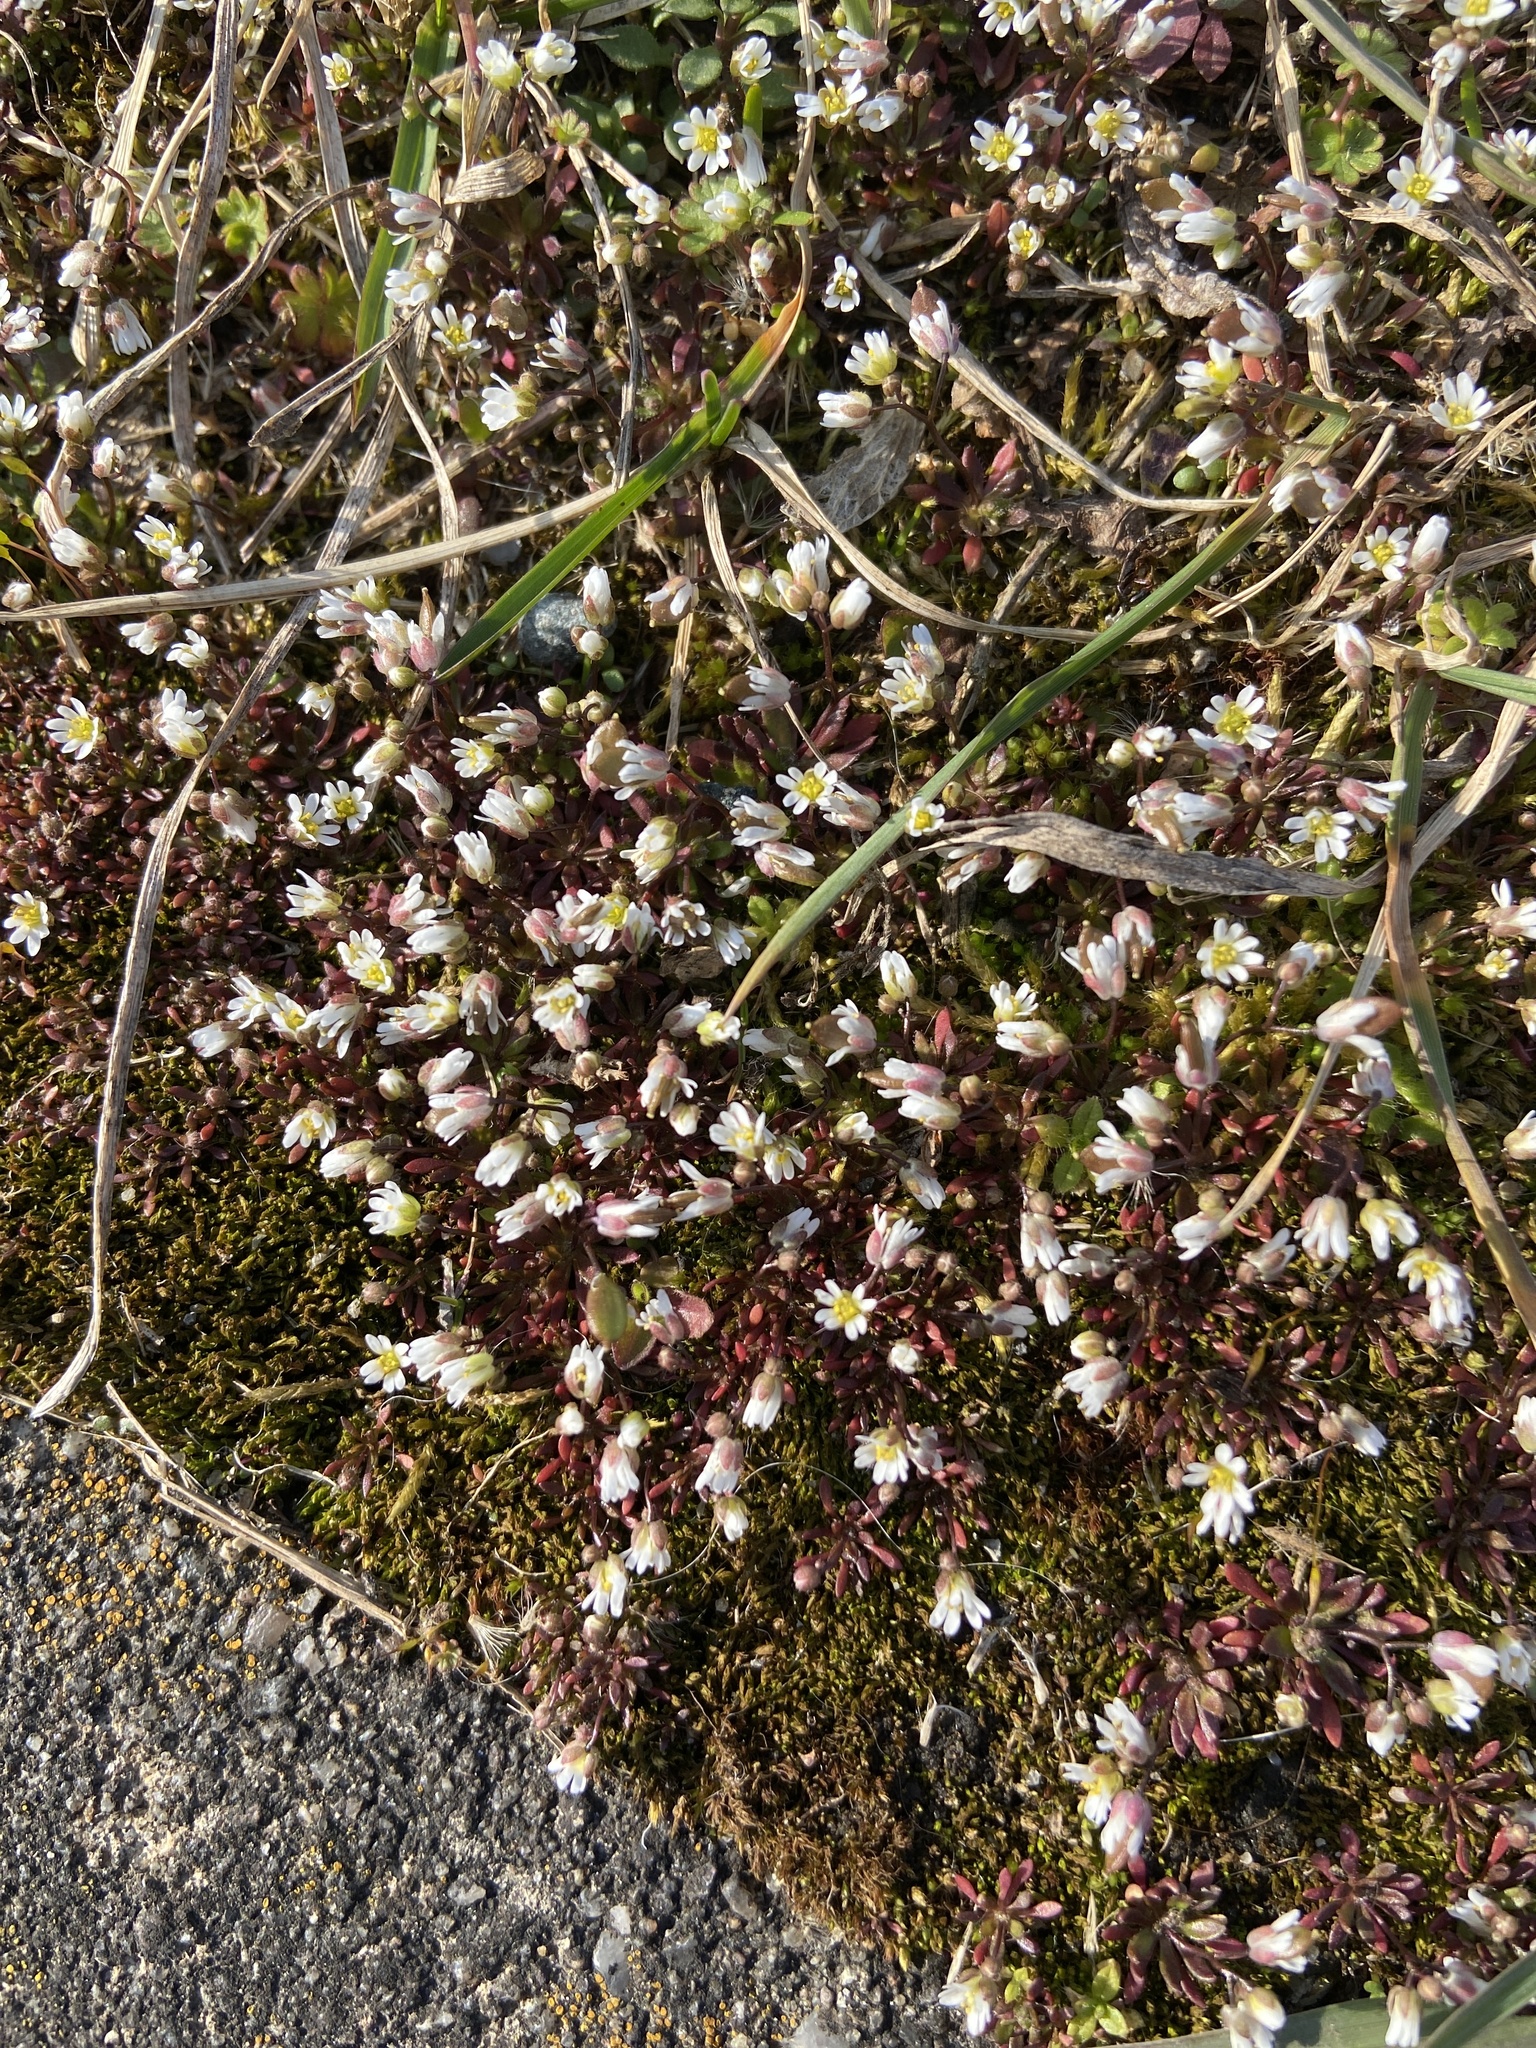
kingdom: Plantae
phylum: Tracheophyta
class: Magnoliopsida
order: Brassicales
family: Brassicaceae
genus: Draba
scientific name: Draba verna
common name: Spring draba
